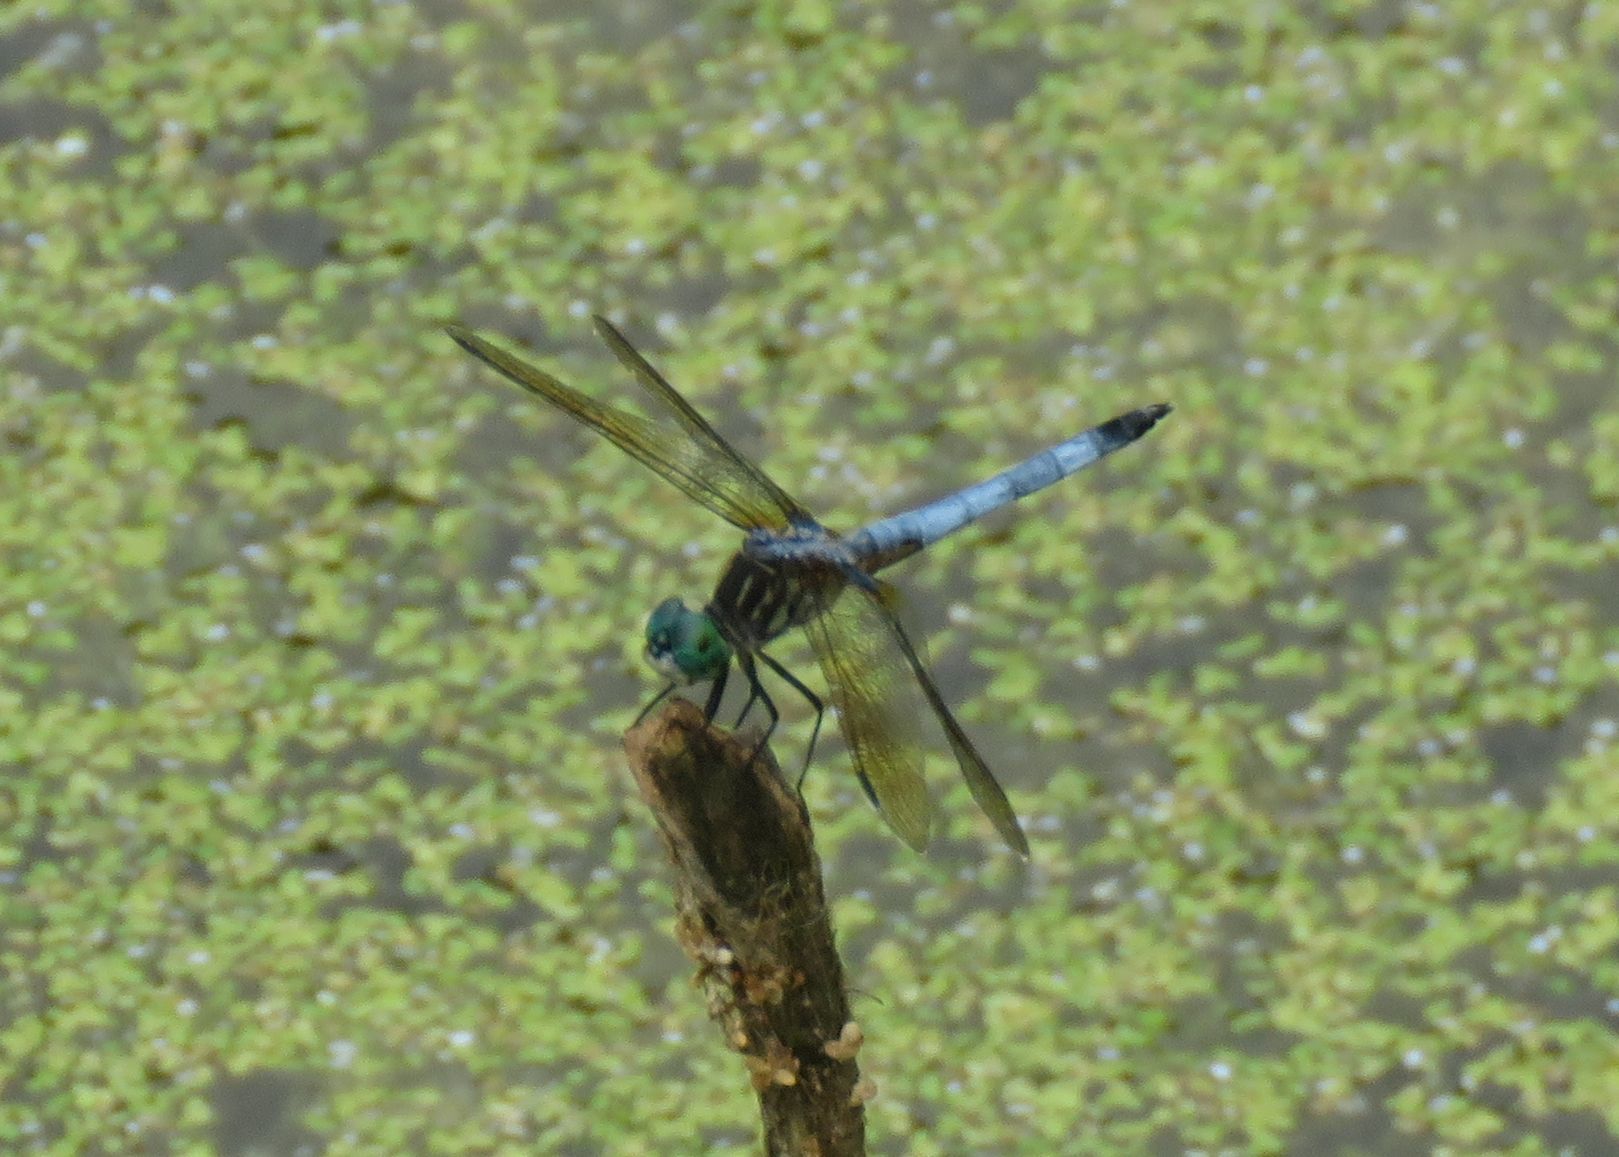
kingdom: Animalia
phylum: Arthropoda
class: Insecta
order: Odonata
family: Libellulidae
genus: Pachydiplax
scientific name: Pachydiplax longipennis
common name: Blue dasher
